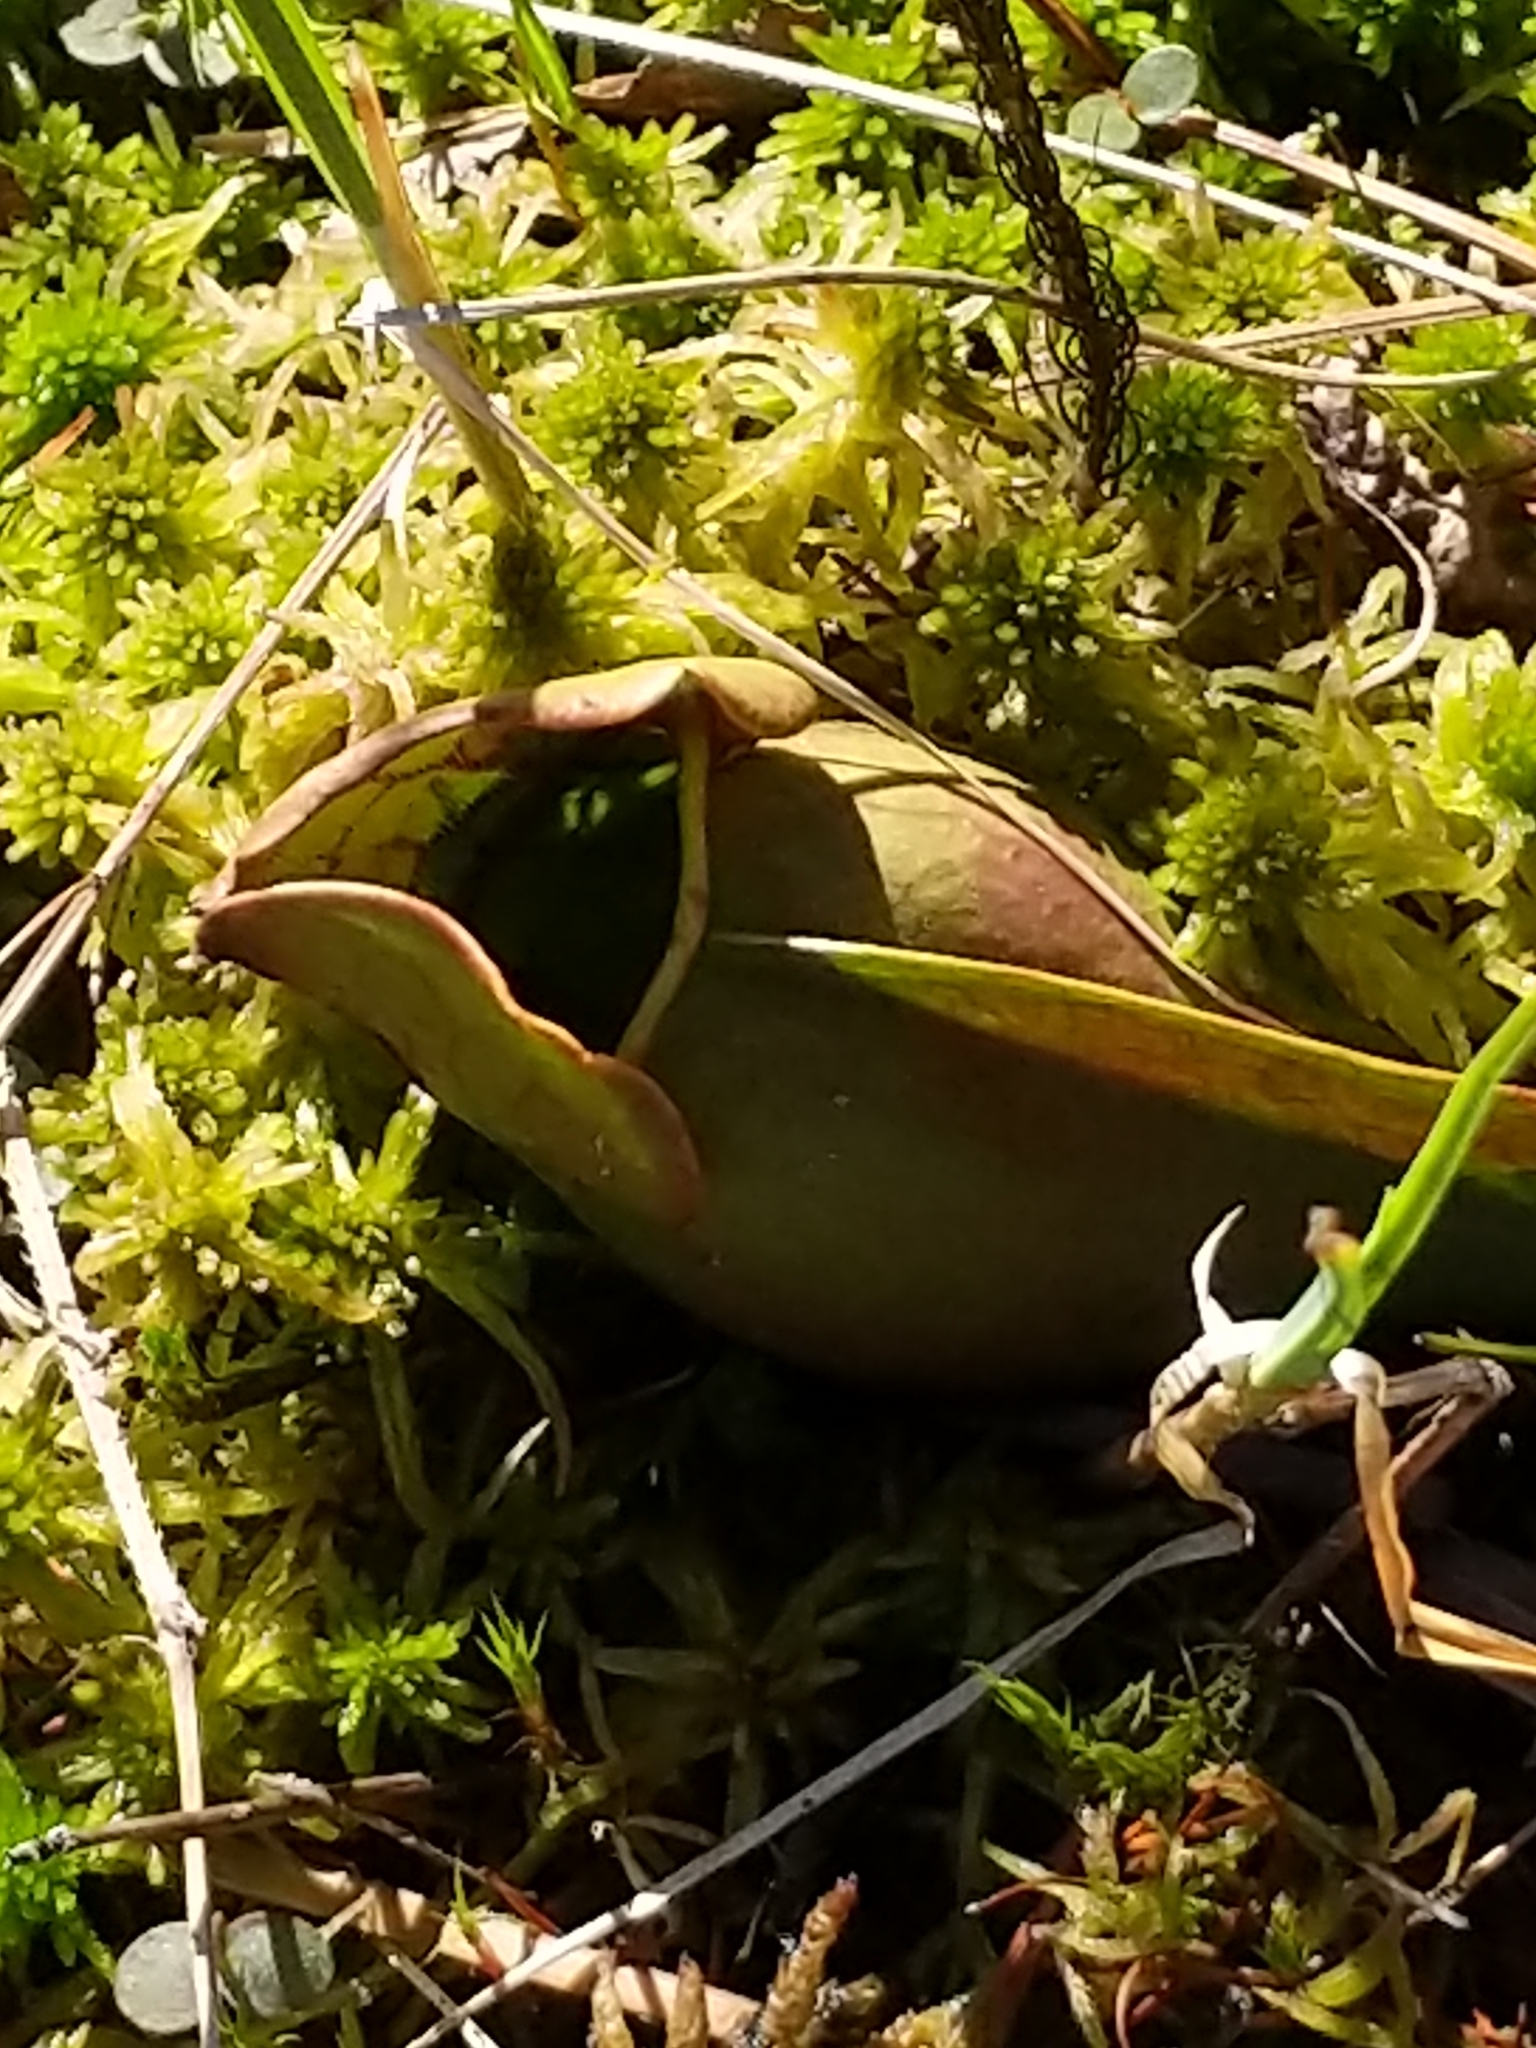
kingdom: Plantae
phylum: Tracheophyta
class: Magnoliopsida
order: Ericales
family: Sarraceniaceae
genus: Sarracenia
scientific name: Sarracenia purpurea
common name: Pitcherplant
